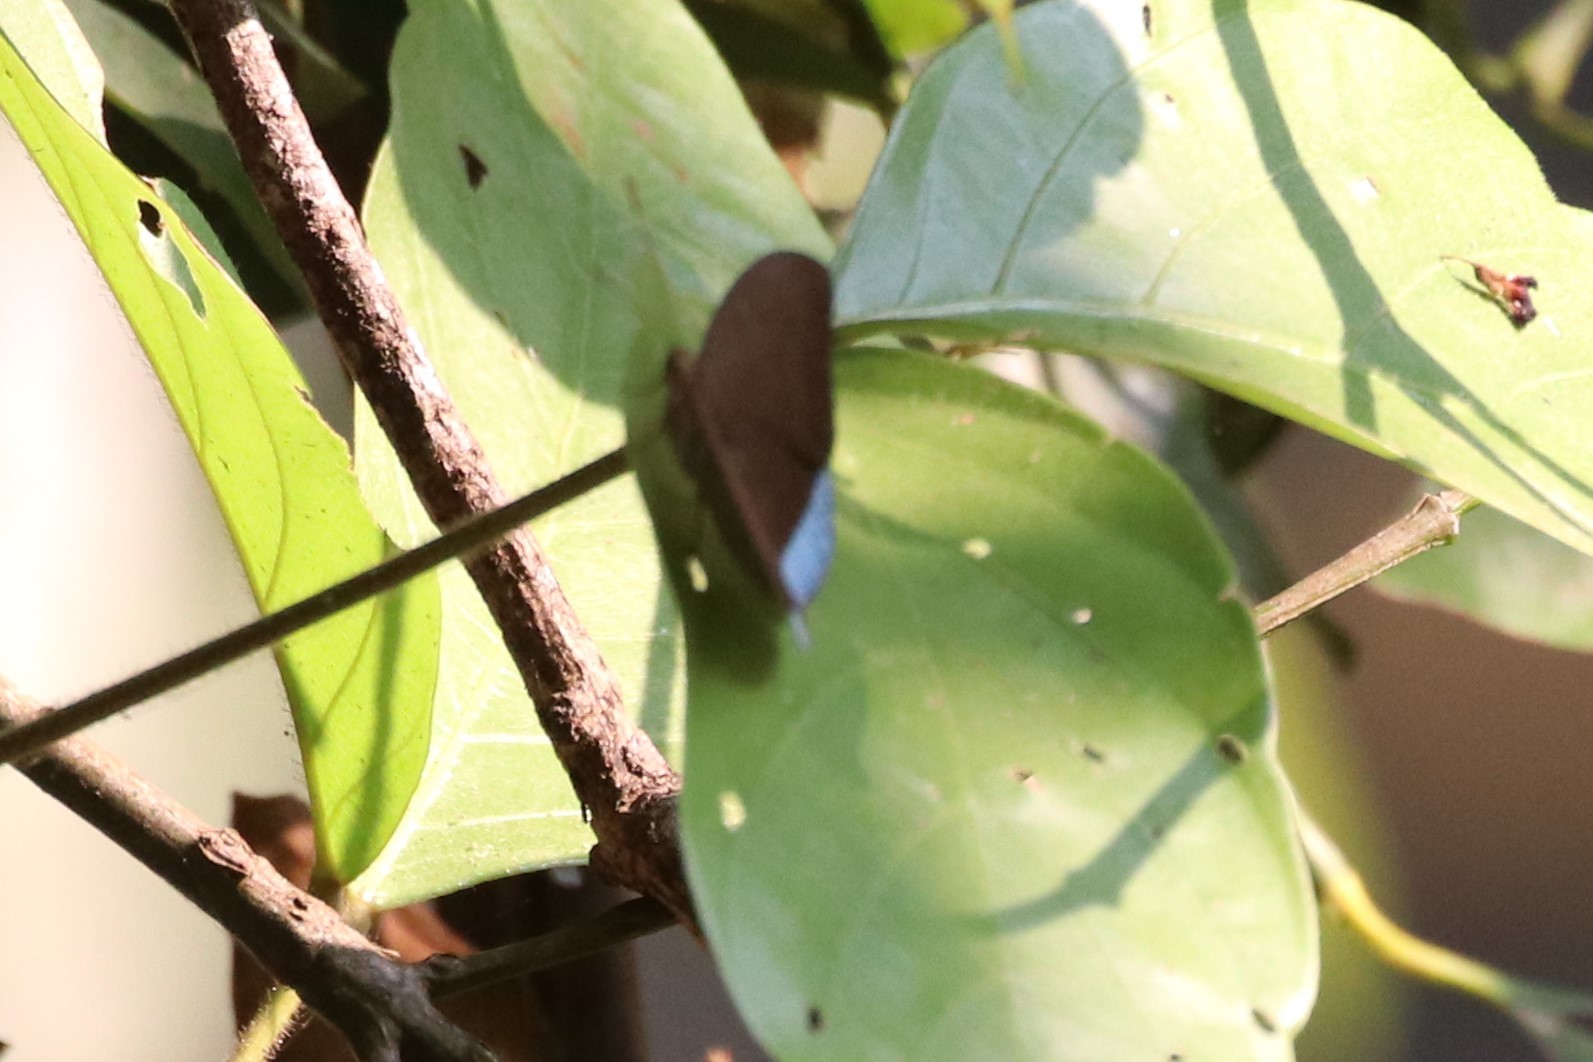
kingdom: Animalia
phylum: Arthropoda
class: Insecta
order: Lepidoptera
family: Nymphalidae
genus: Tanaecia
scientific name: Tanaecia julii
